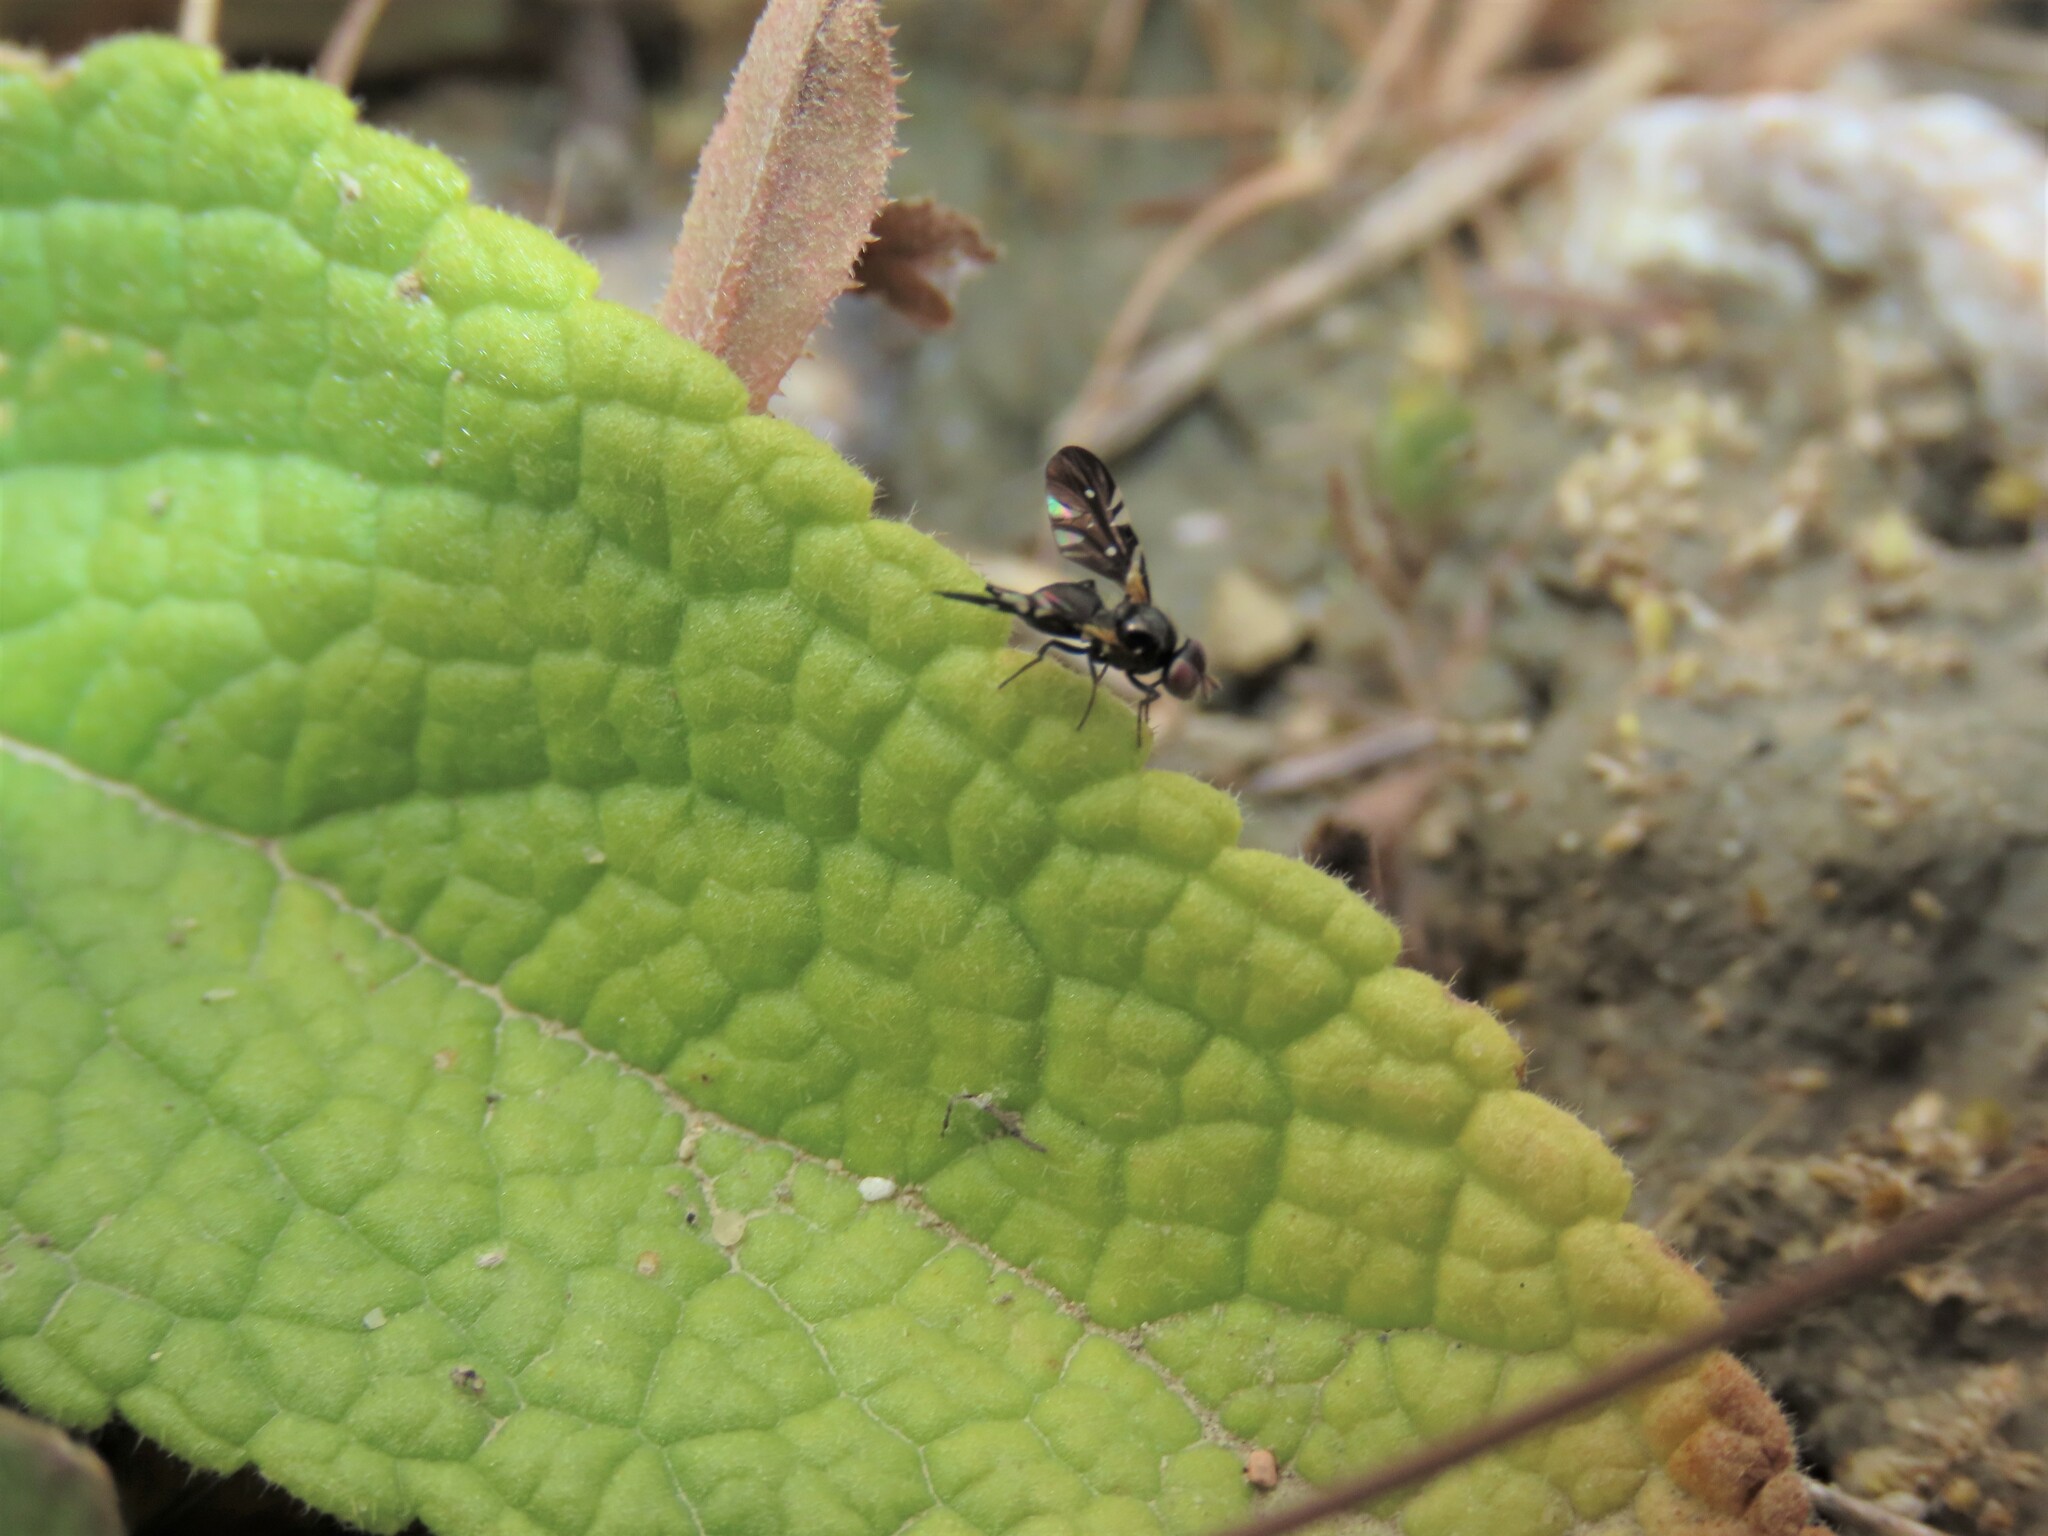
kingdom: Animalia
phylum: Arthropoda
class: Insecta
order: Diptera
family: Tephritidae
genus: Oxyaciura
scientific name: Oxyaciura tibialis
